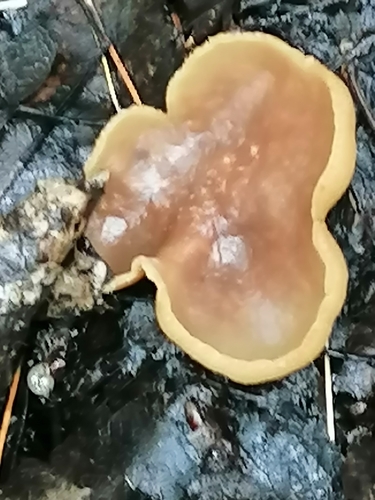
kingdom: Fungi
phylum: Ascomycota
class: Pezizomycetes
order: Pezizales
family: Pezizaceae
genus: Peziza
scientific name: Peziza varia
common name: Layered cup
